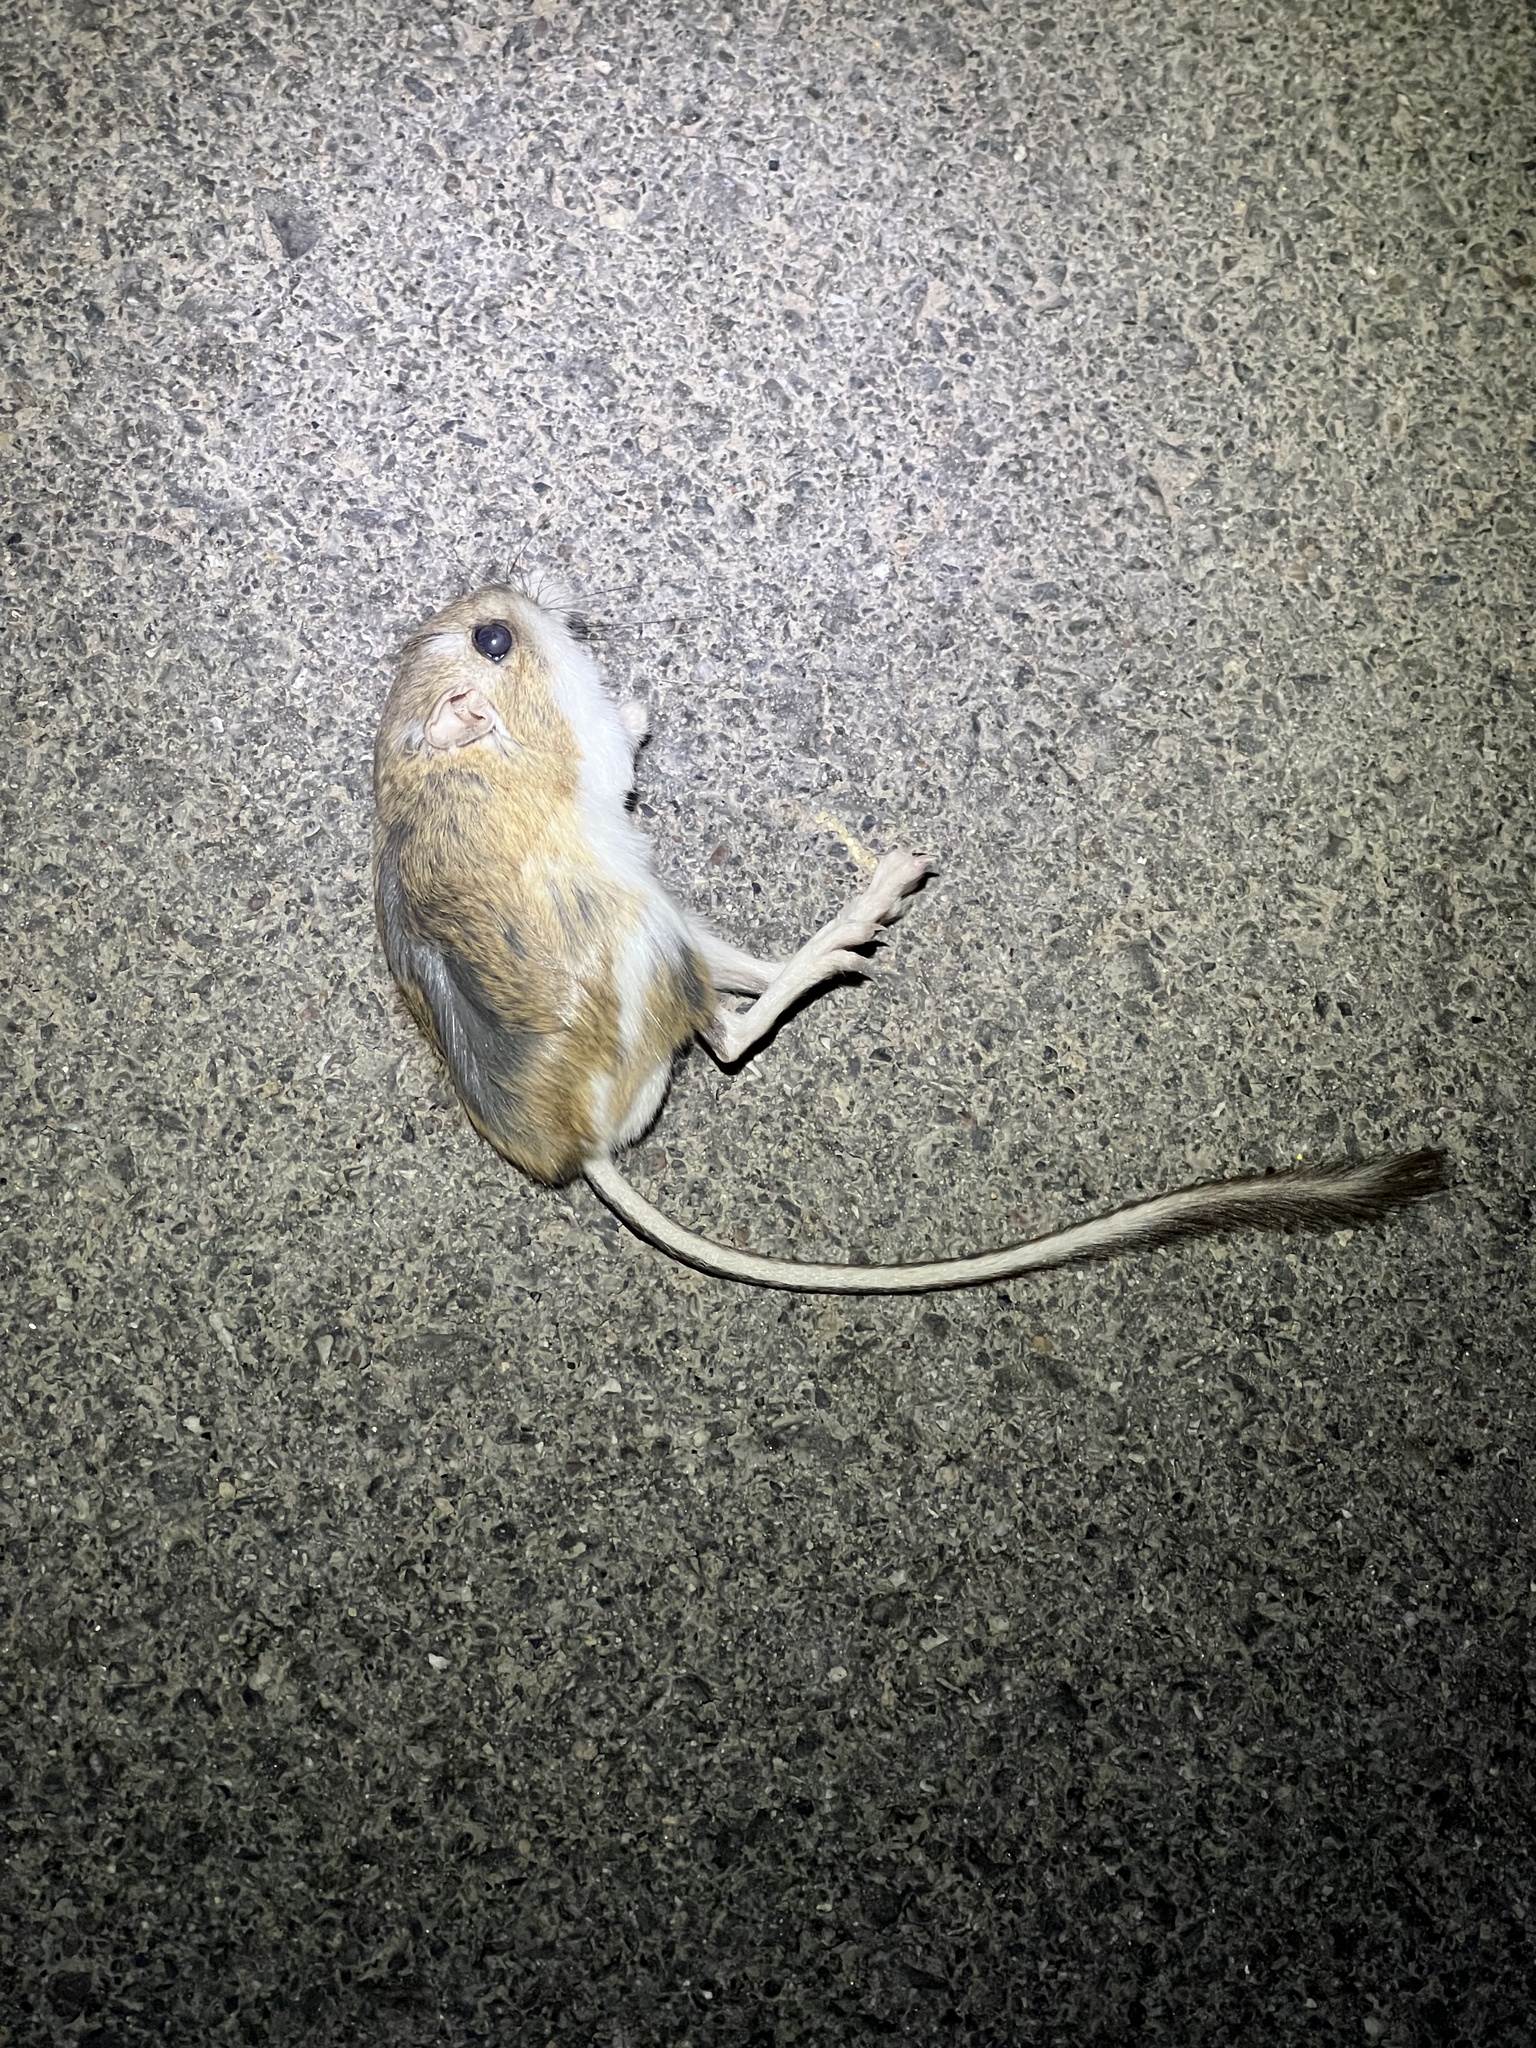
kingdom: Animalia
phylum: Chordata
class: Mammalia
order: Rodentia
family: Heteromyidae
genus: Dipodomys
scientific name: Dipodomys merriami
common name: Merriam's kangaroo rat
